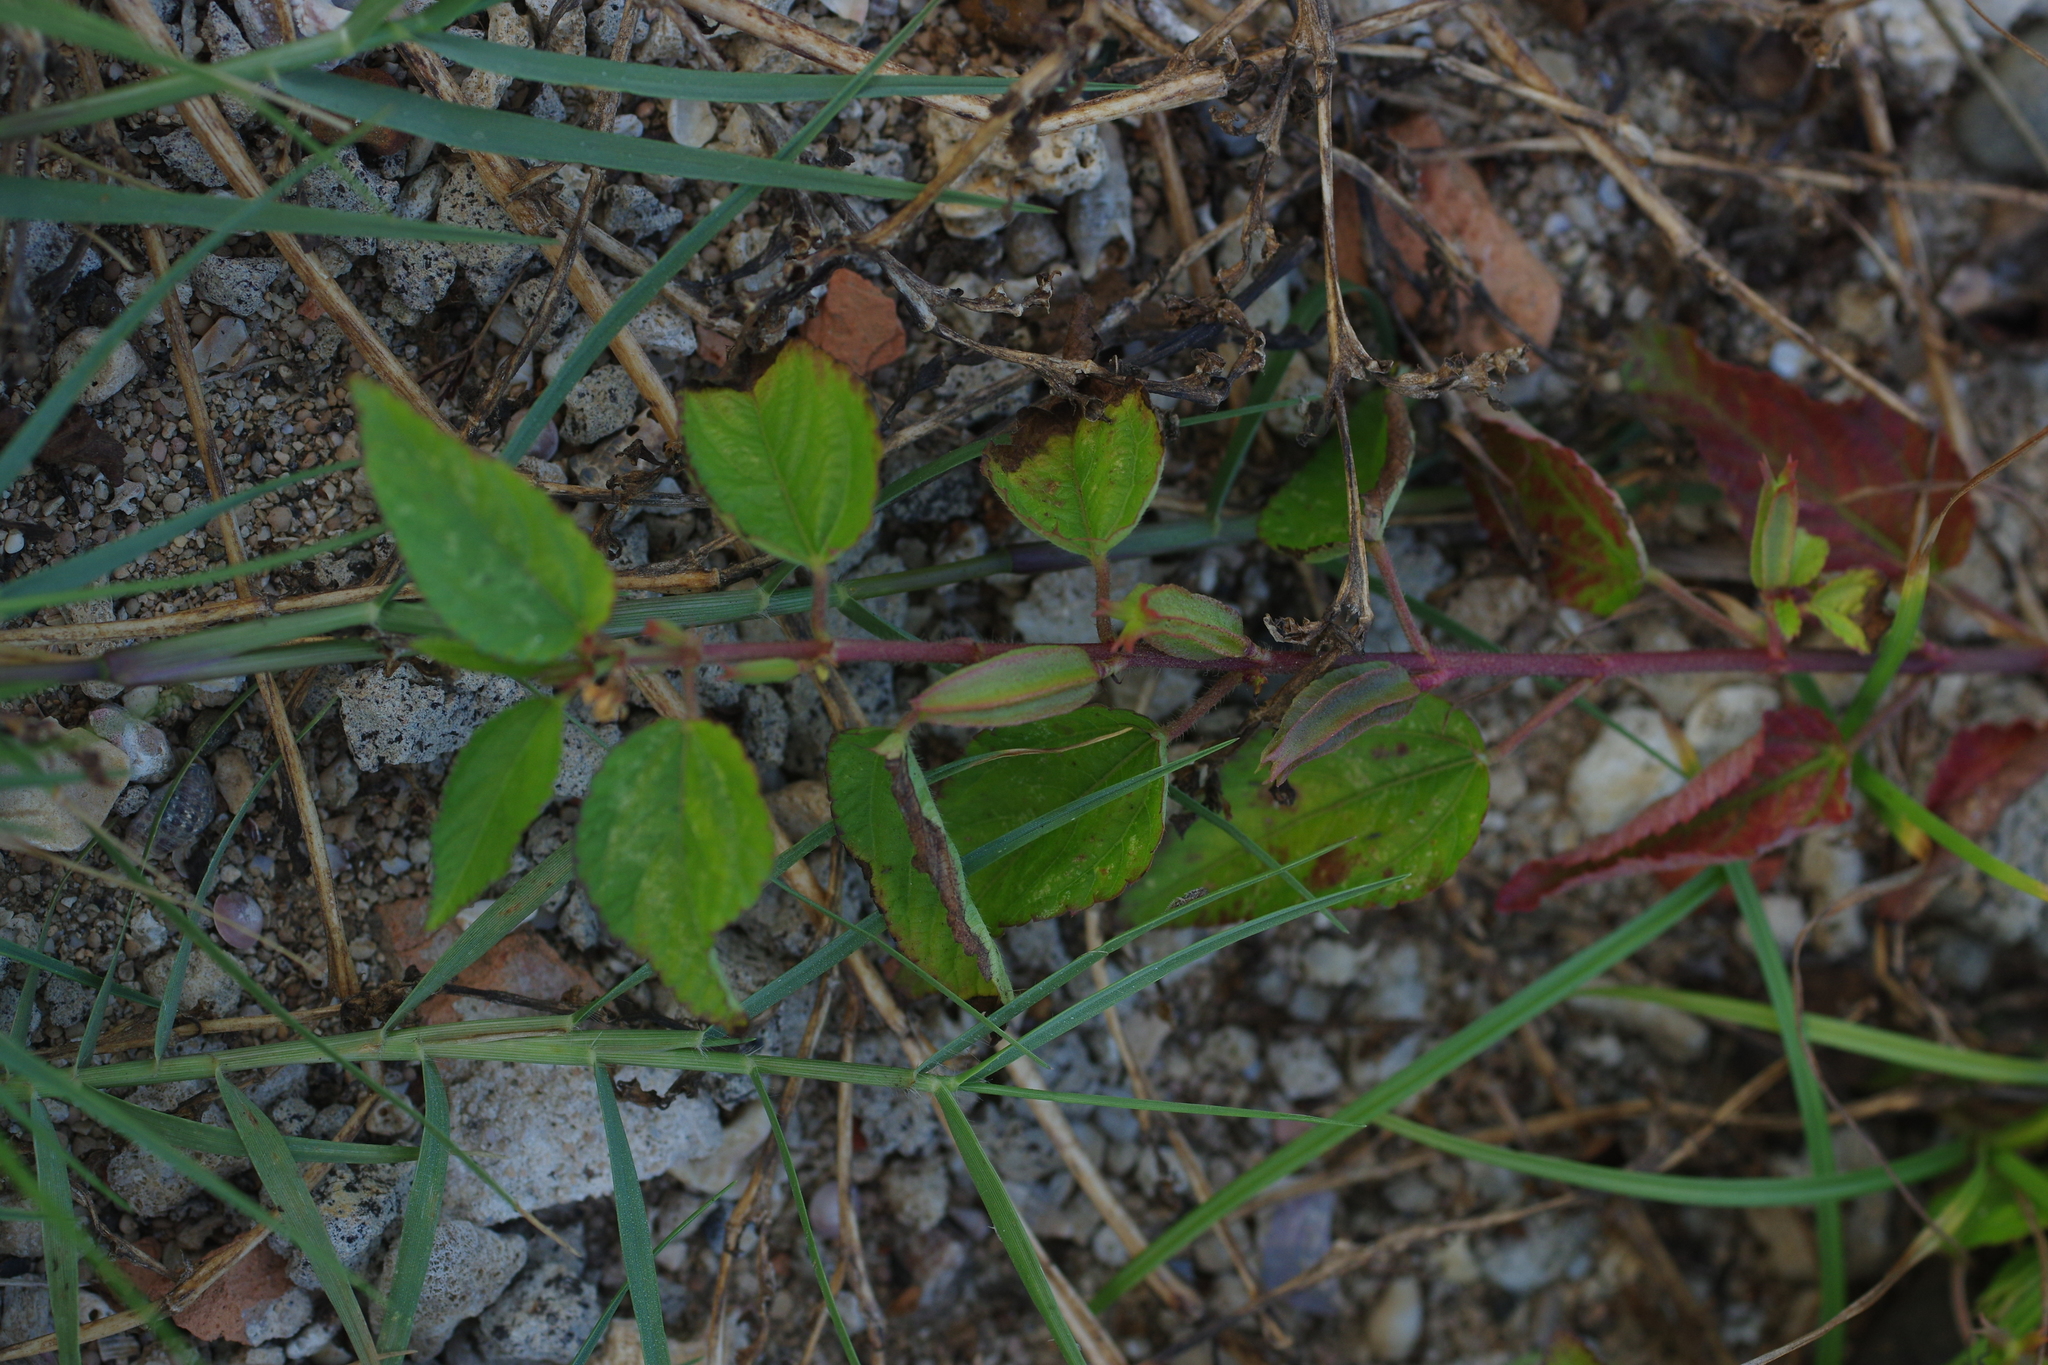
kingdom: Plantae
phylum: Tracheophyta
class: Magnoliopsida
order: Malvales
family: Malvaceae
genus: Corchorus
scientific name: Corchorus aestuans
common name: Jute
